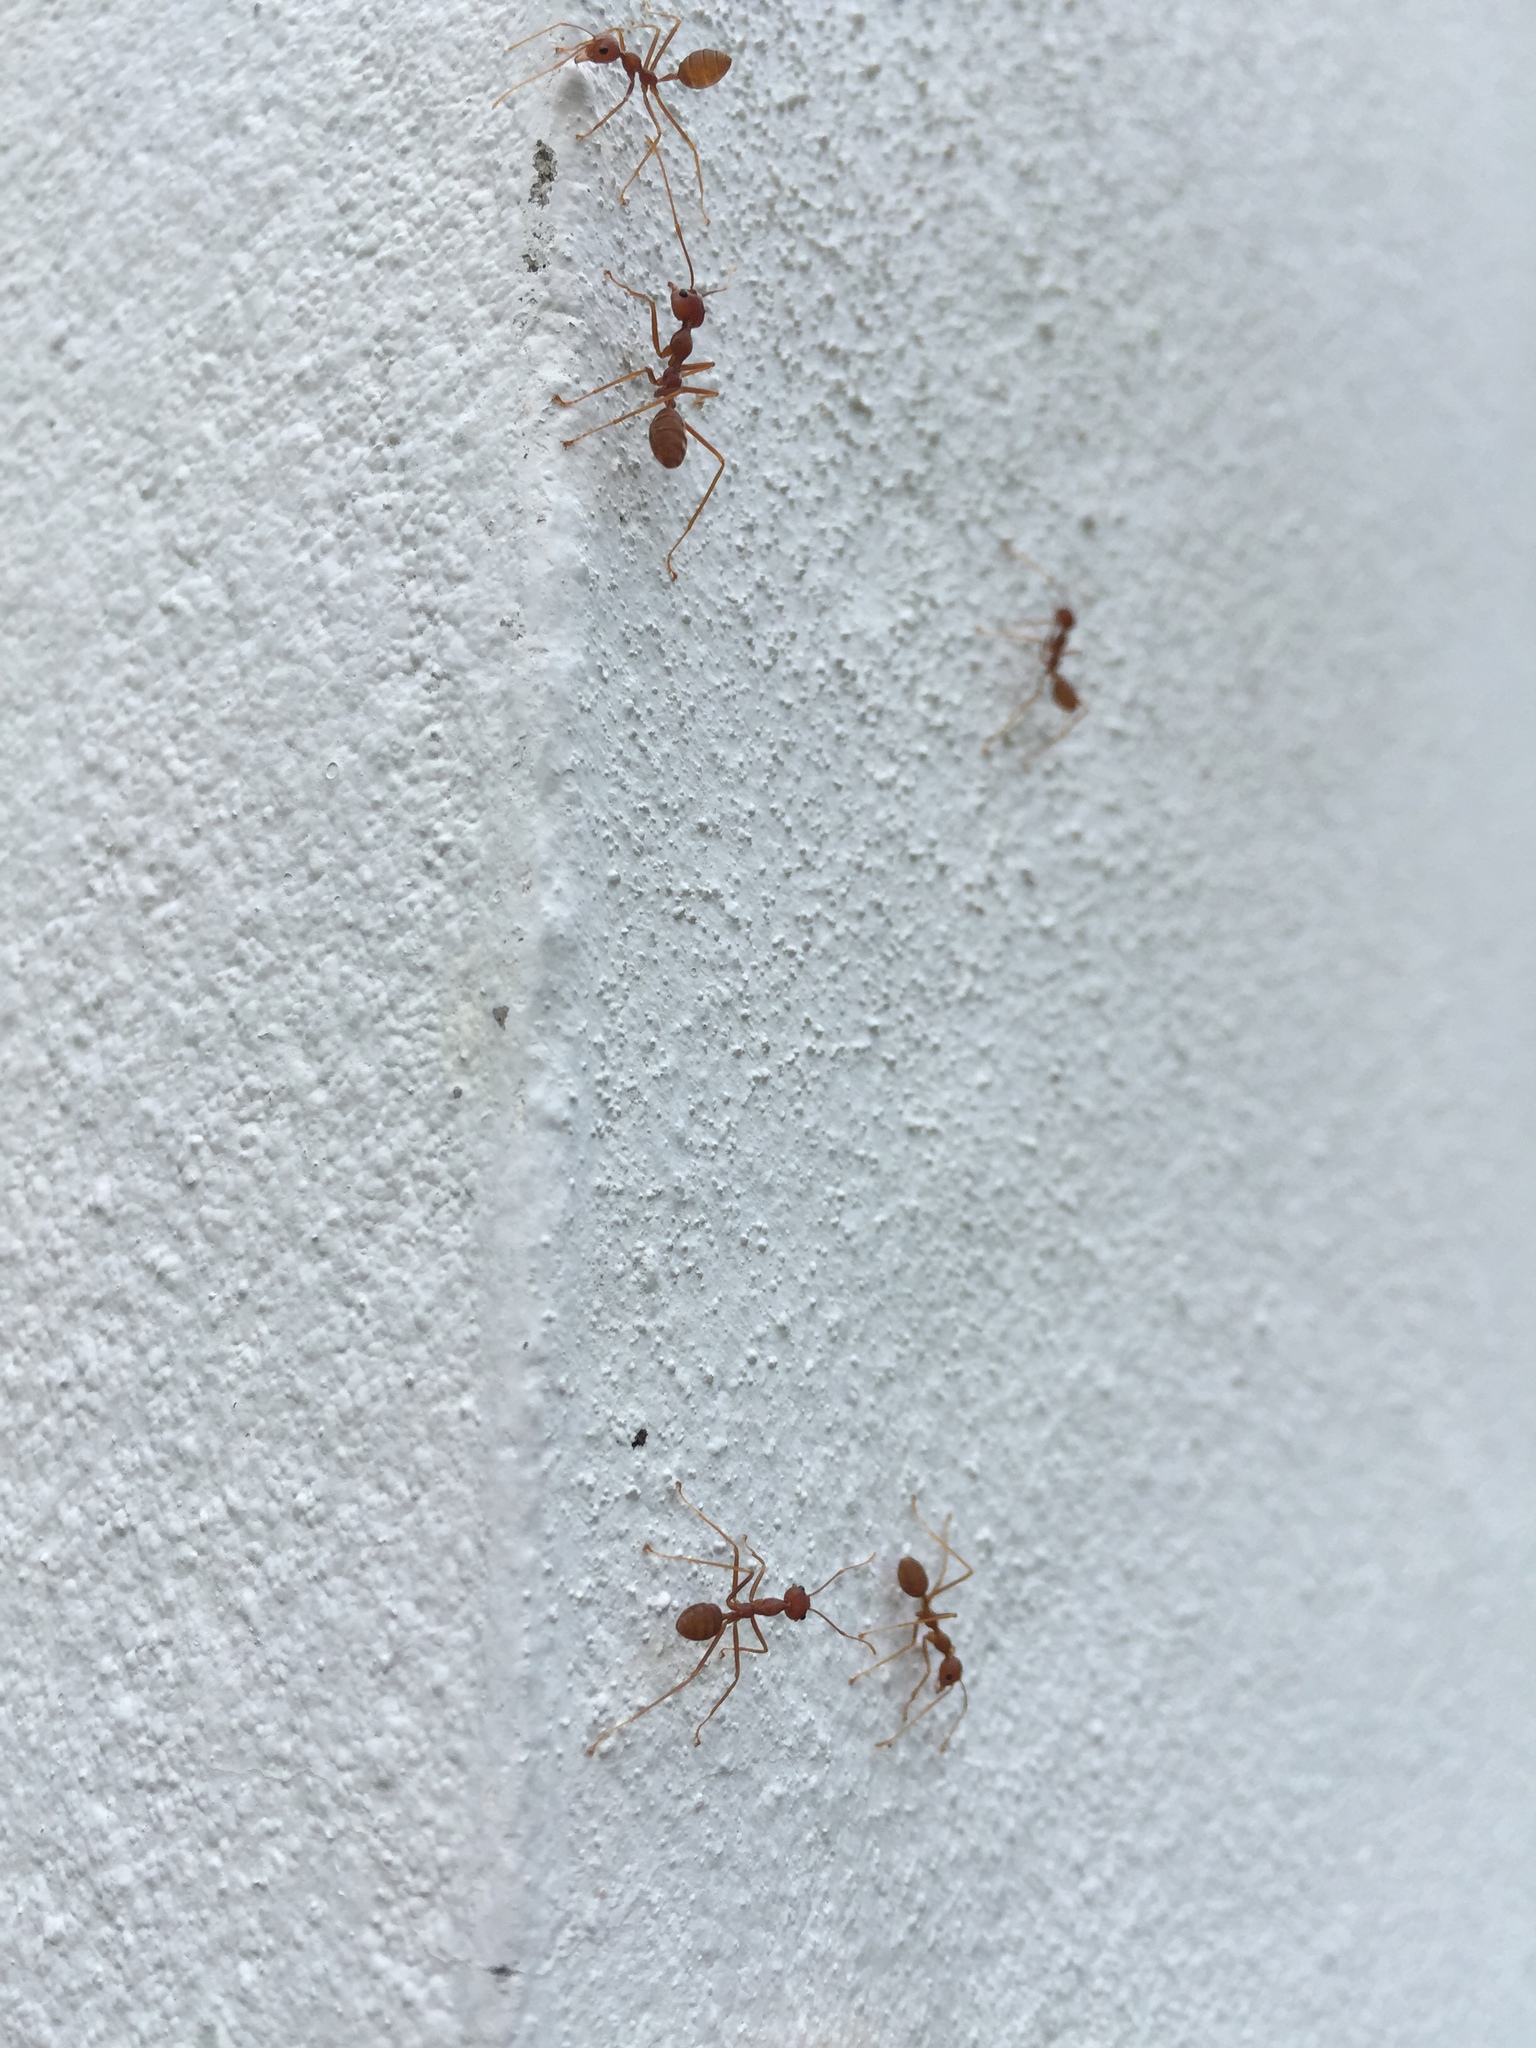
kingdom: Animalia
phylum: Arthropoda
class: Insecta
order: Hymenoptera
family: Formicidae
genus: Oecophylla
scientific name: Oecophylla smaragdina
